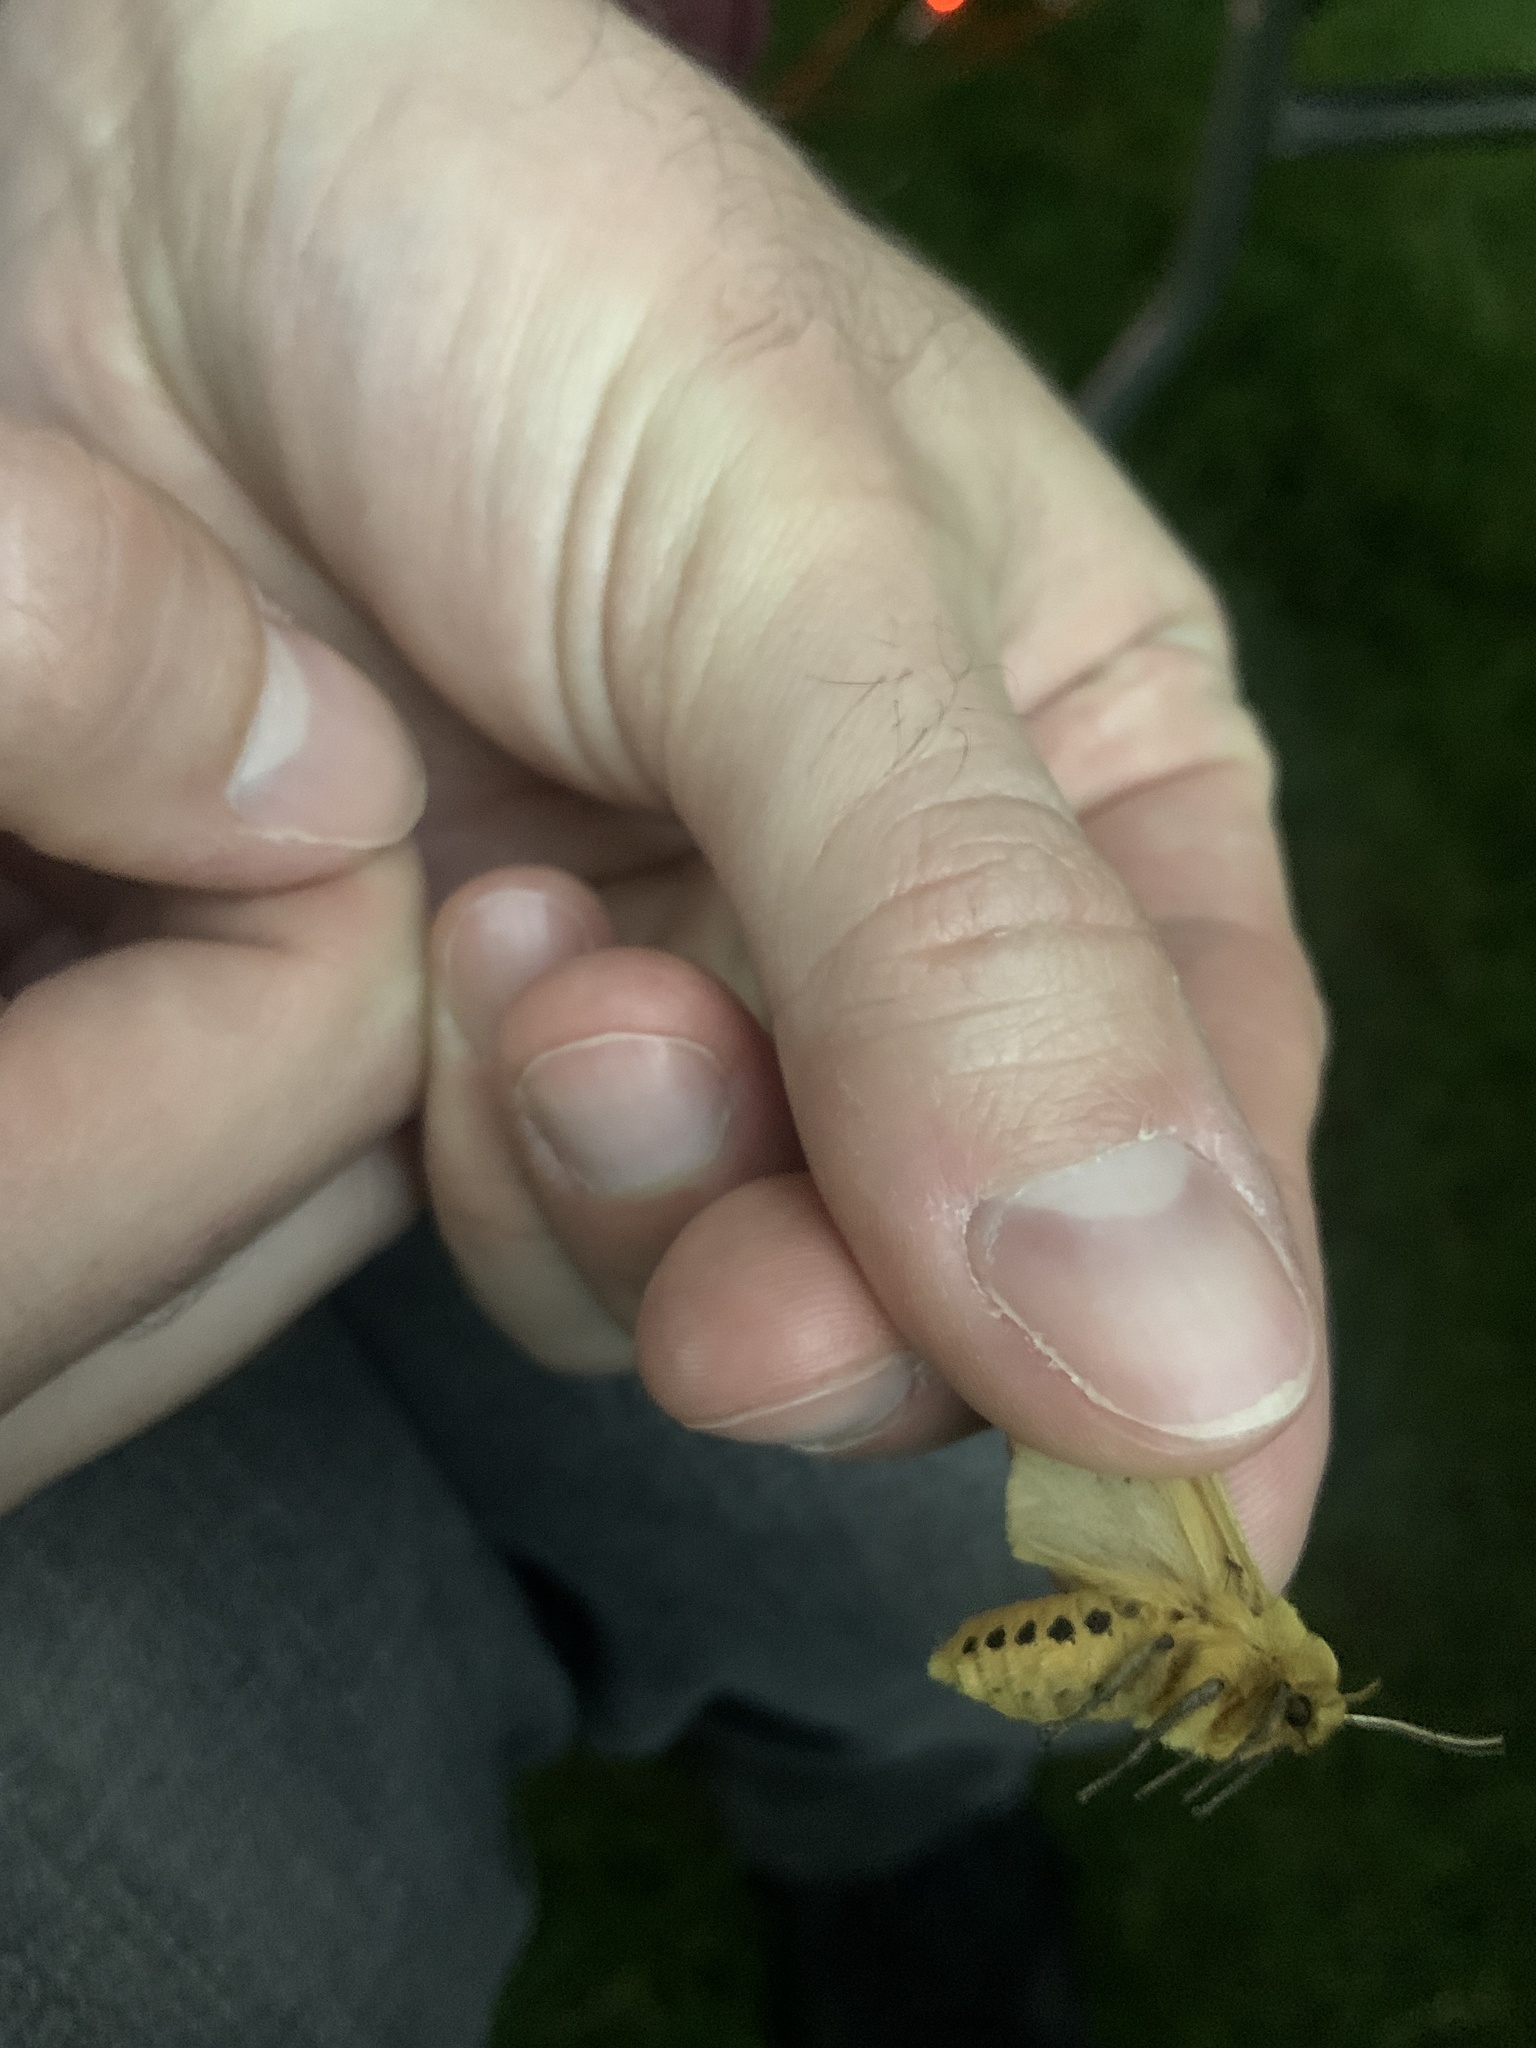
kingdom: Animalia
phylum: Arthropoda
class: Insecta
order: Lepidoptera
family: Erebidae
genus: Pyrrharctia
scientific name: Pyrrharctia isabella
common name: Isabella tiger moth
